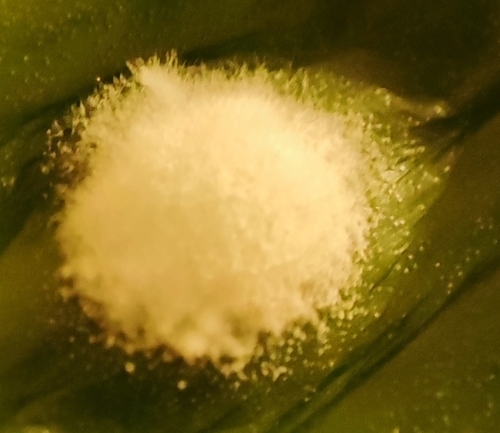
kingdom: Fungi
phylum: Ascomycota
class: Eurotiomycetes
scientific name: Eurotiomycetes
